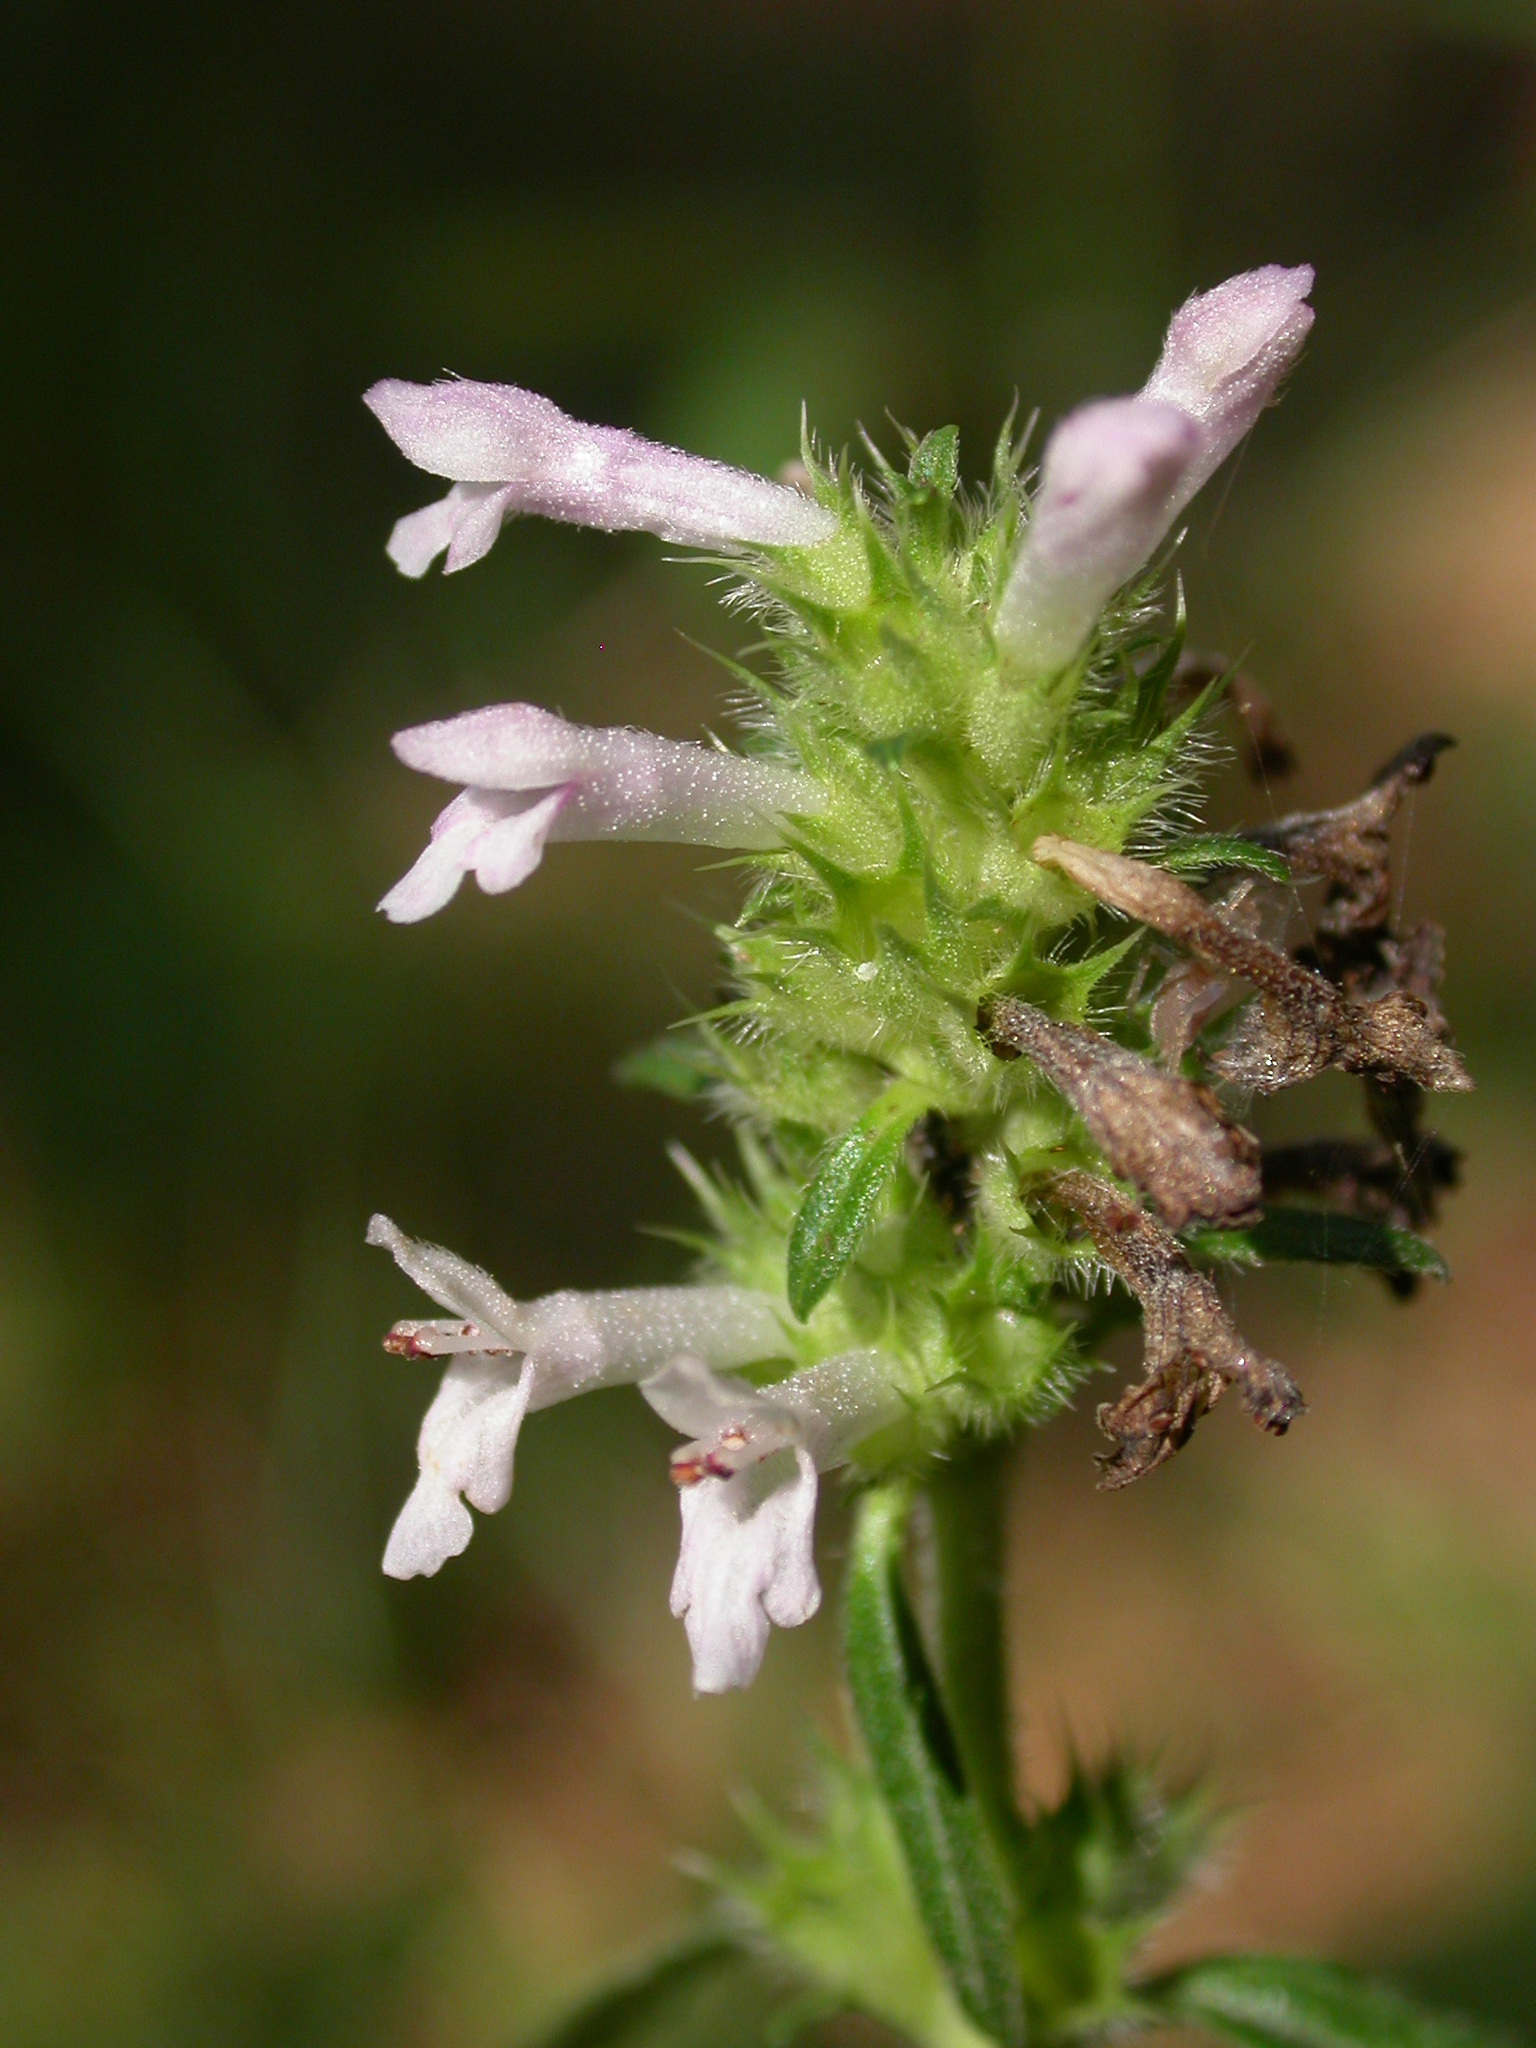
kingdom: Plantae
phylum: Tracheophyta
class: Magnoliopsida
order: Lamiales
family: Lamiaceae
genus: Betonica
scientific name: Betonica officinalis
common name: Bishop's-wort
